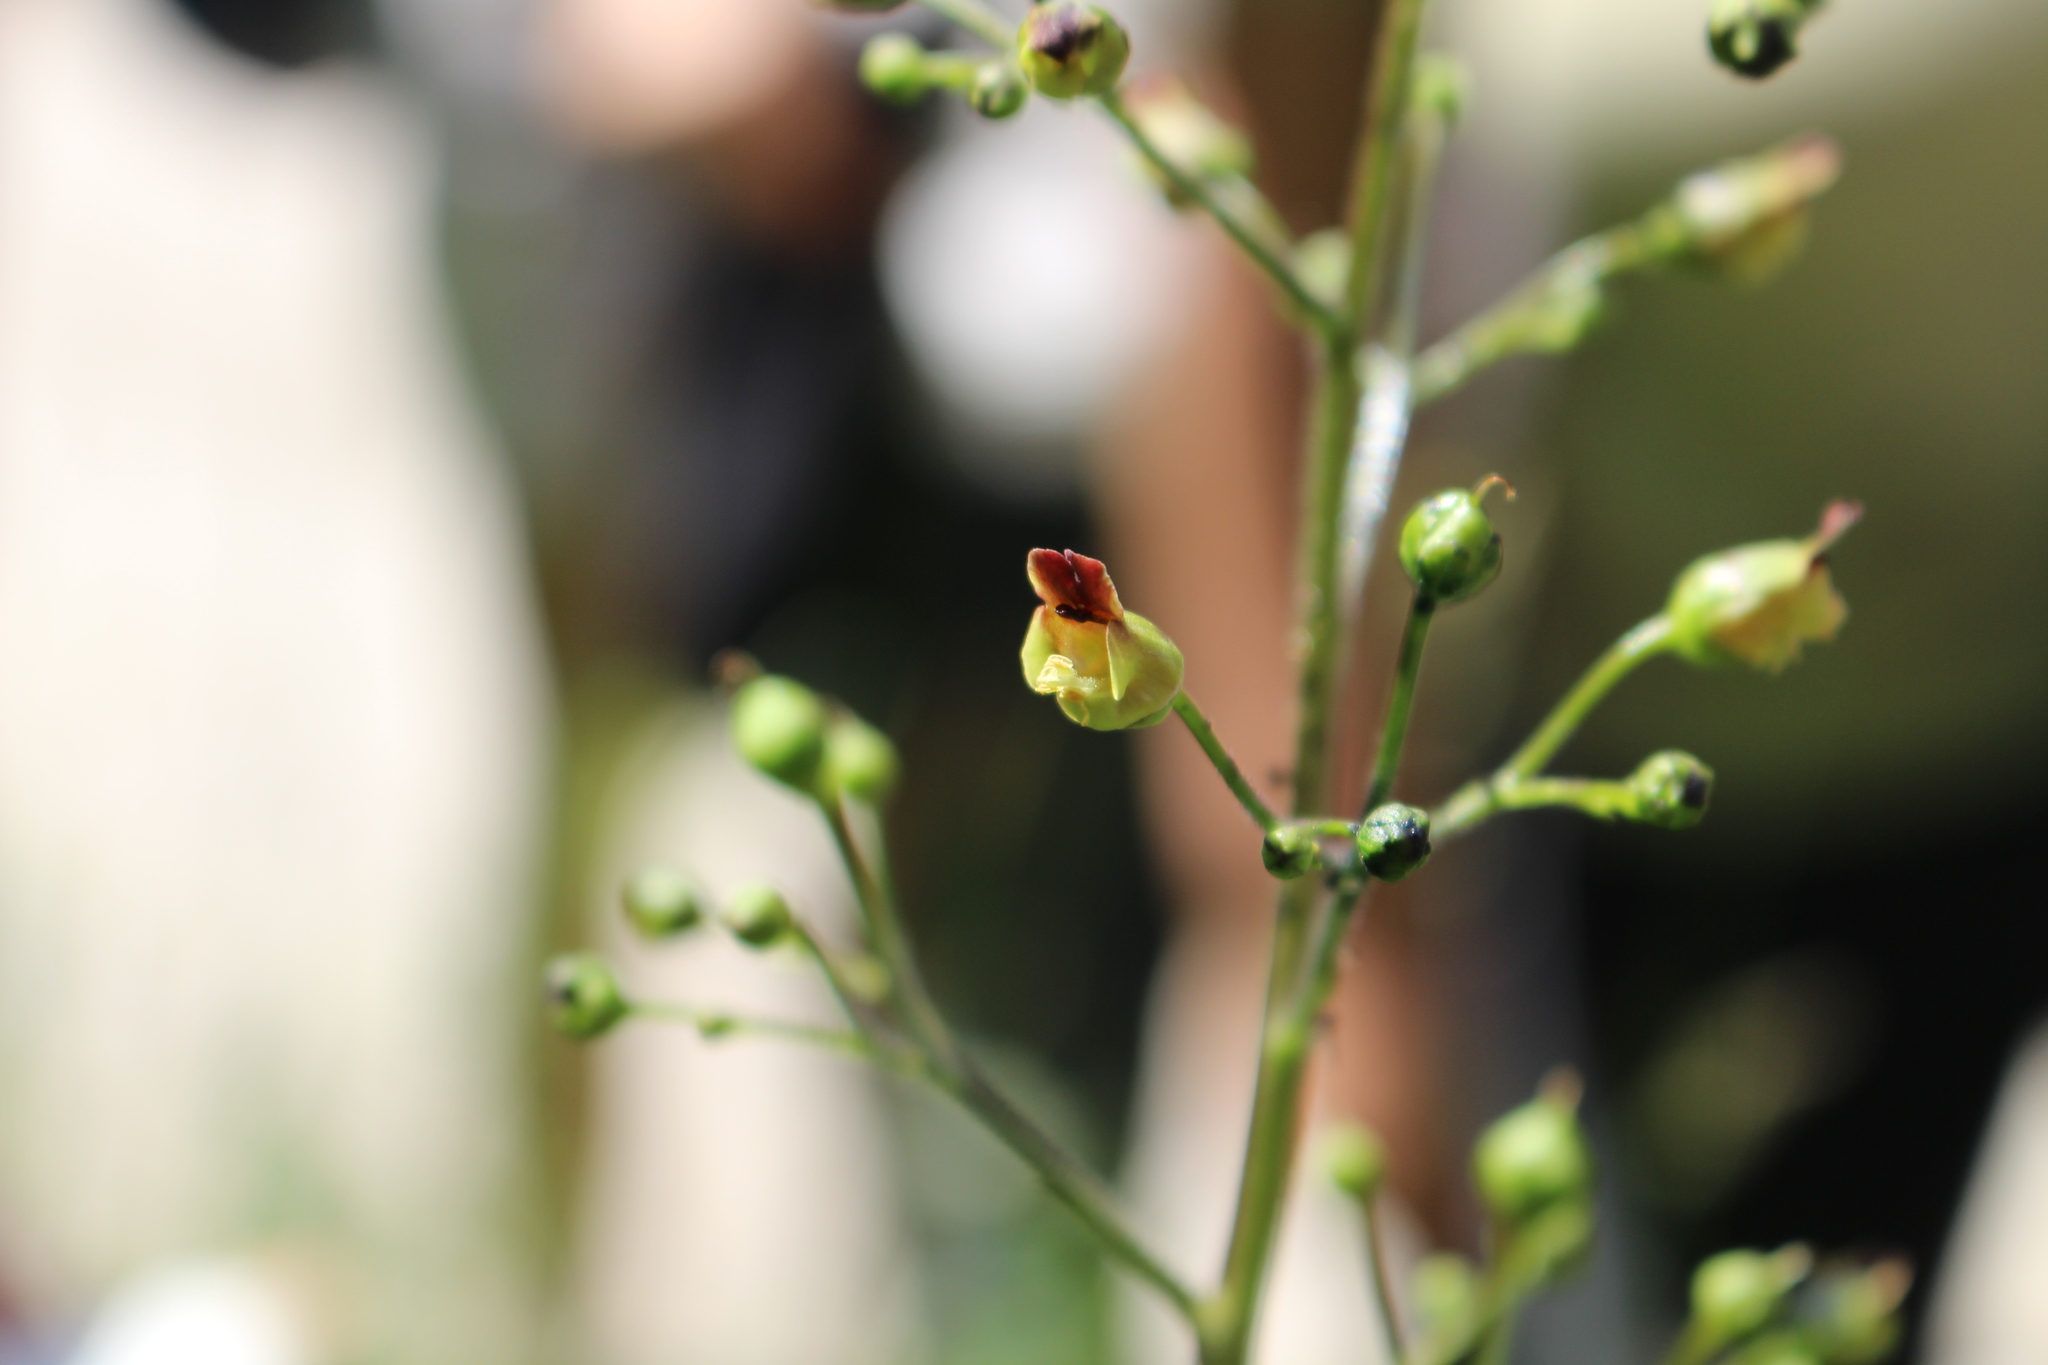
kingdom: Plantae
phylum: Tracheophyta
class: Magnoliopsida
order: Lamiales
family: Scrophulariaceae
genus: Scrophularia
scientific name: Scrophularia nodosa
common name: Common figwort
